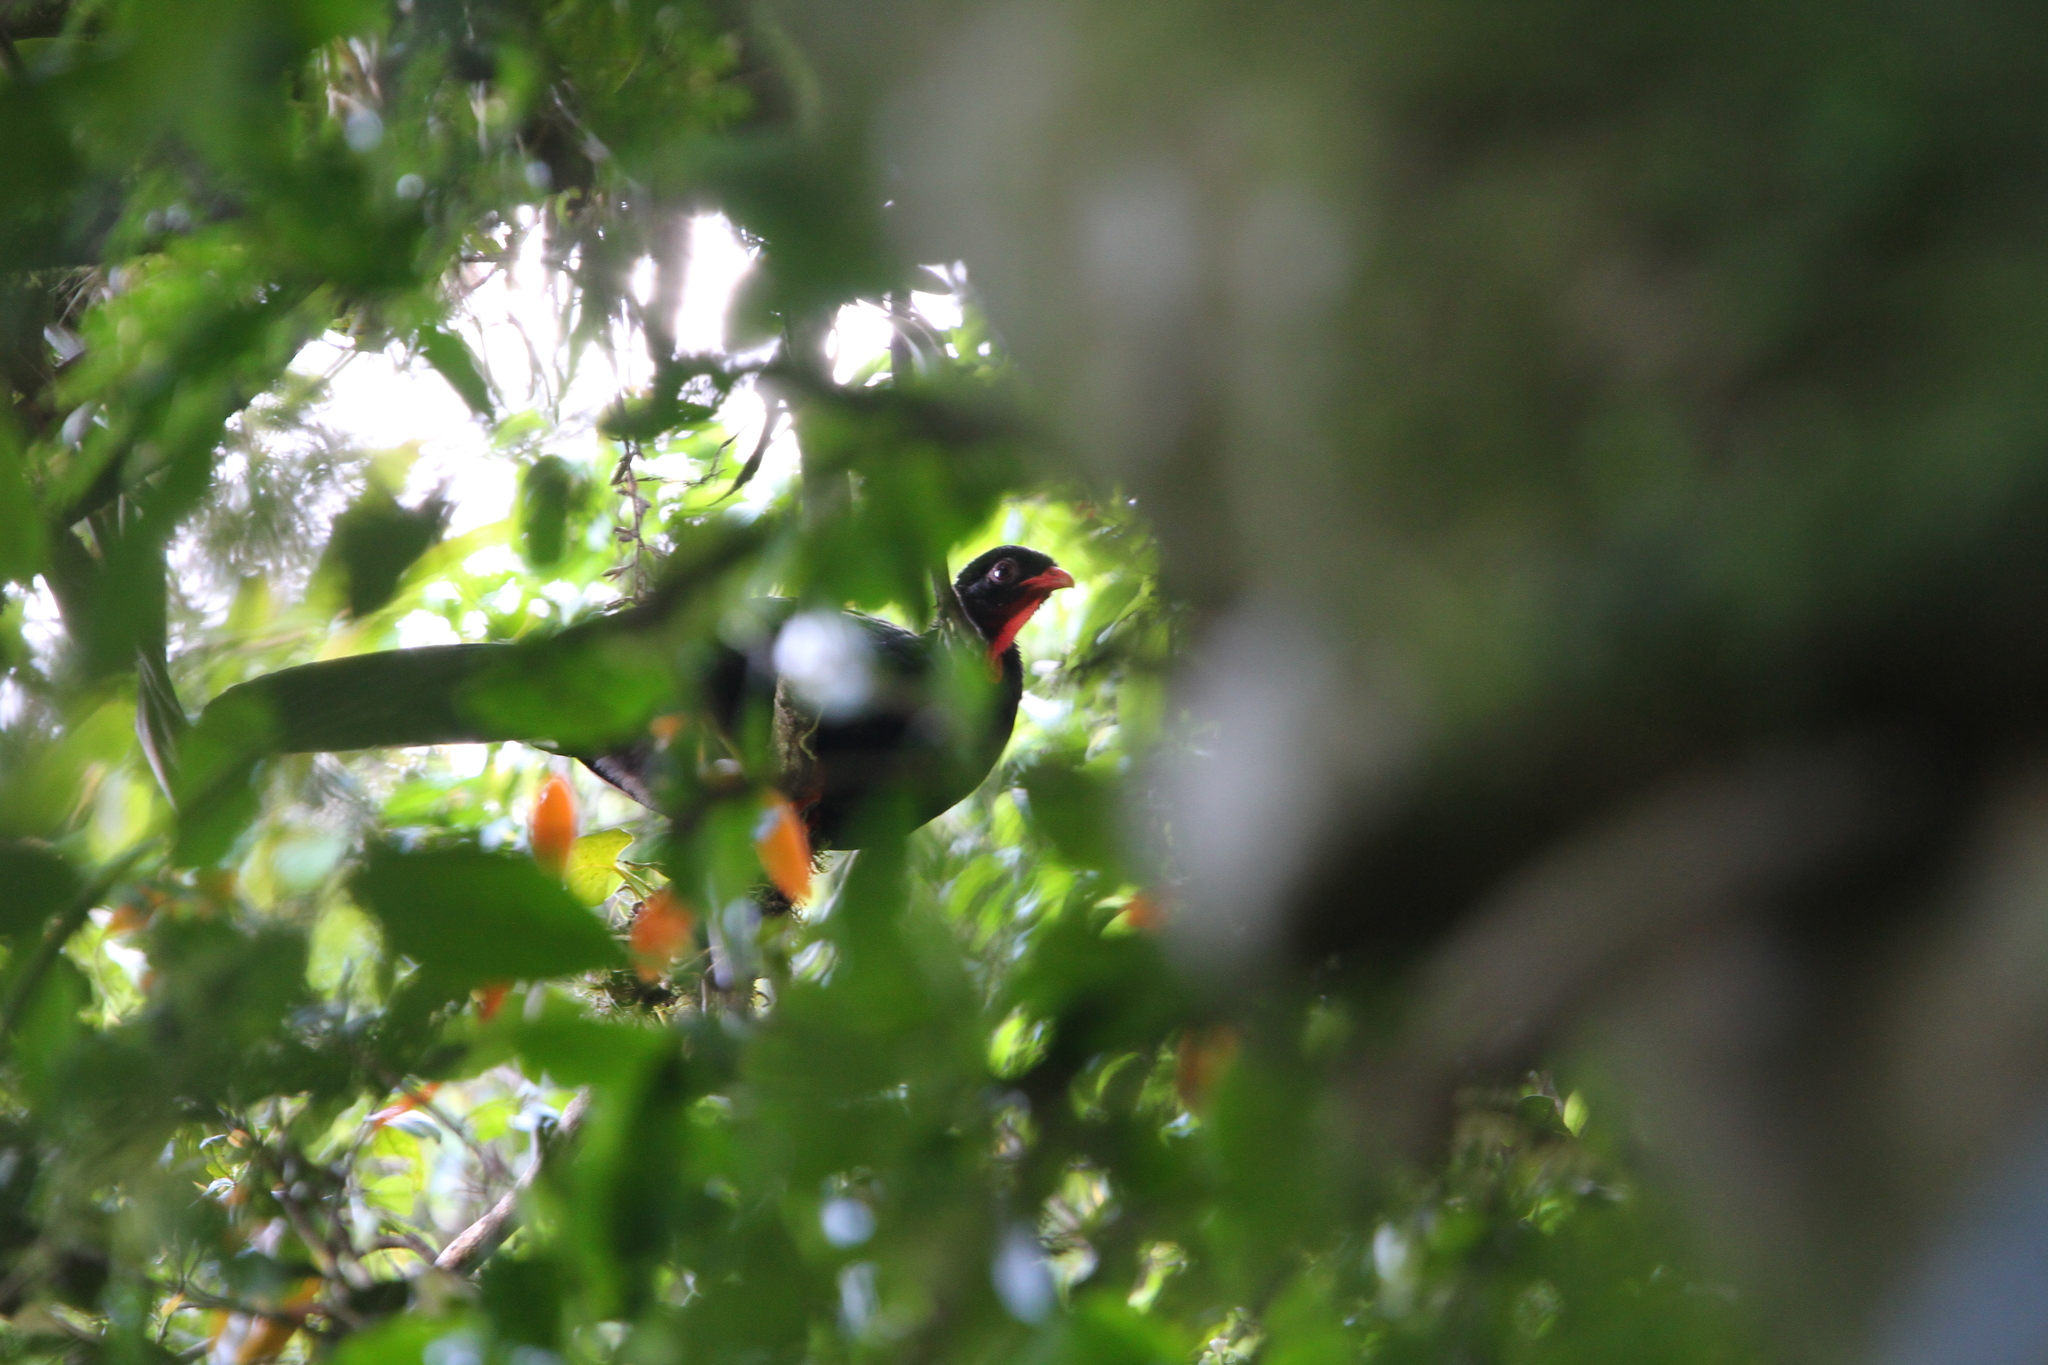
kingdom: Animalia
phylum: Chordata
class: Aves
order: Galliformes
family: Cracidae
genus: Penelopina
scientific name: Penelopina nigra
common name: Highland guan
